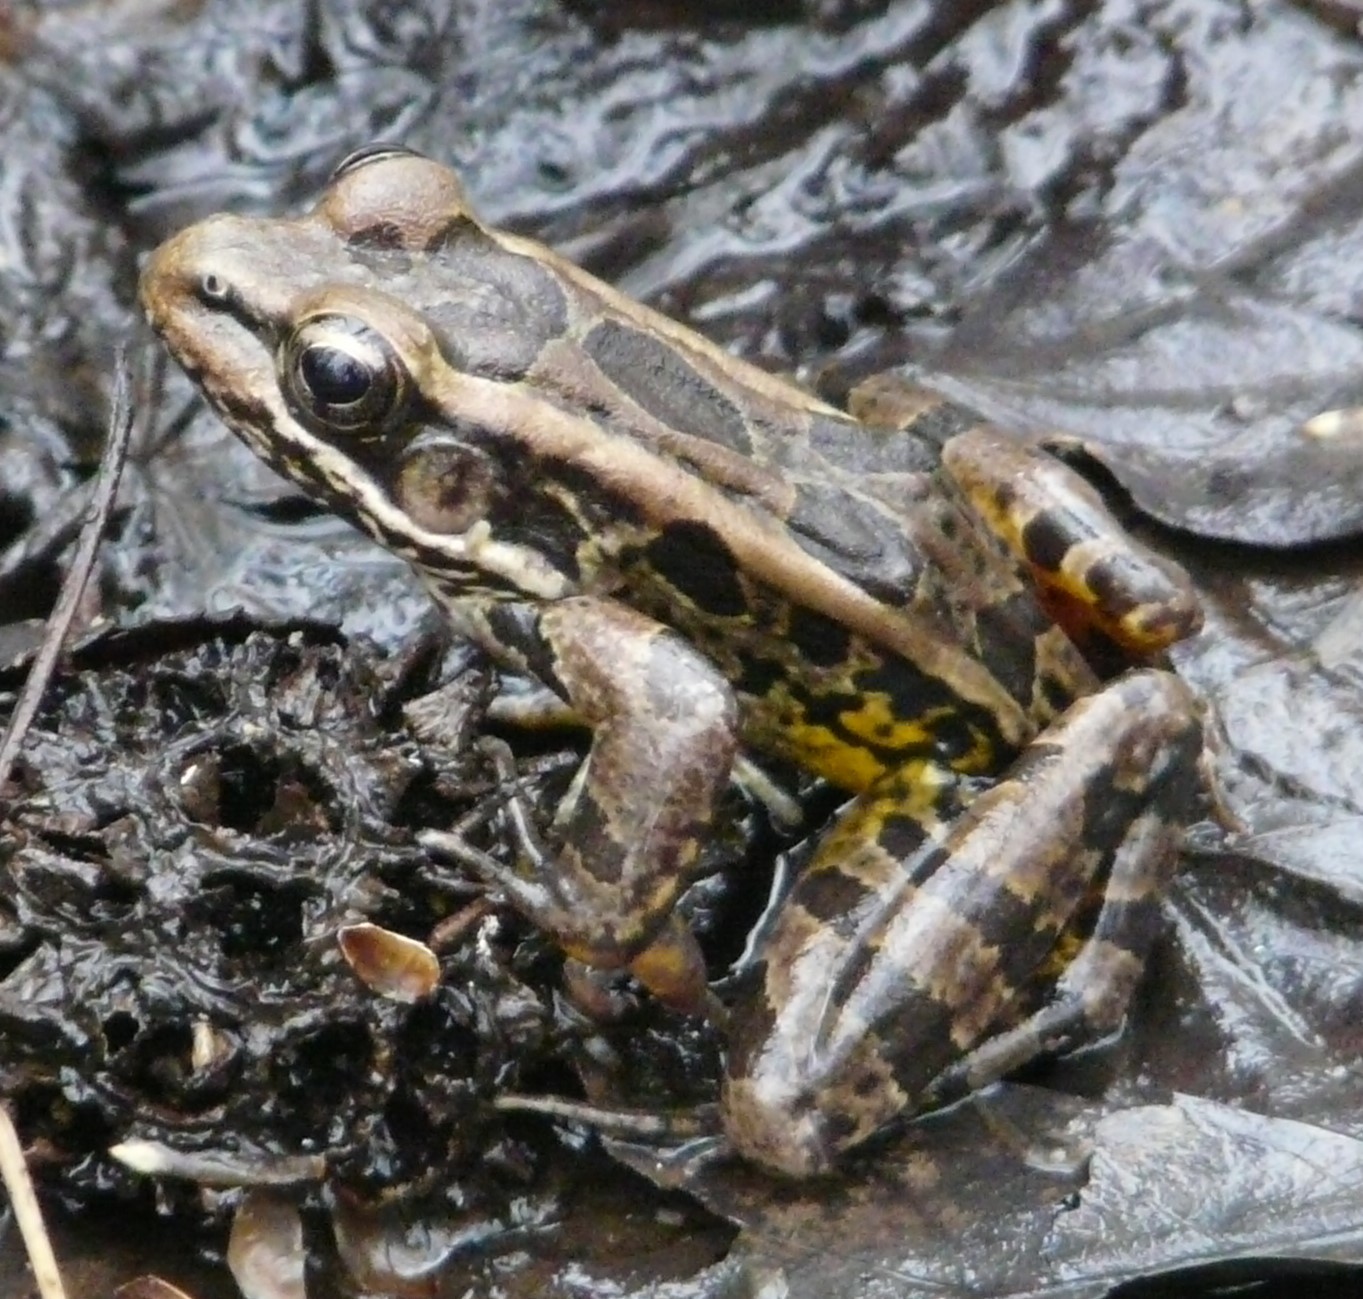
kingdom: Animalia
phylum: Chordata
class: Amphibia
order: Anura
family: Ranidae
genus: Lithobates
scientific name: Lithobates palustris
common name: Pickerel frog
